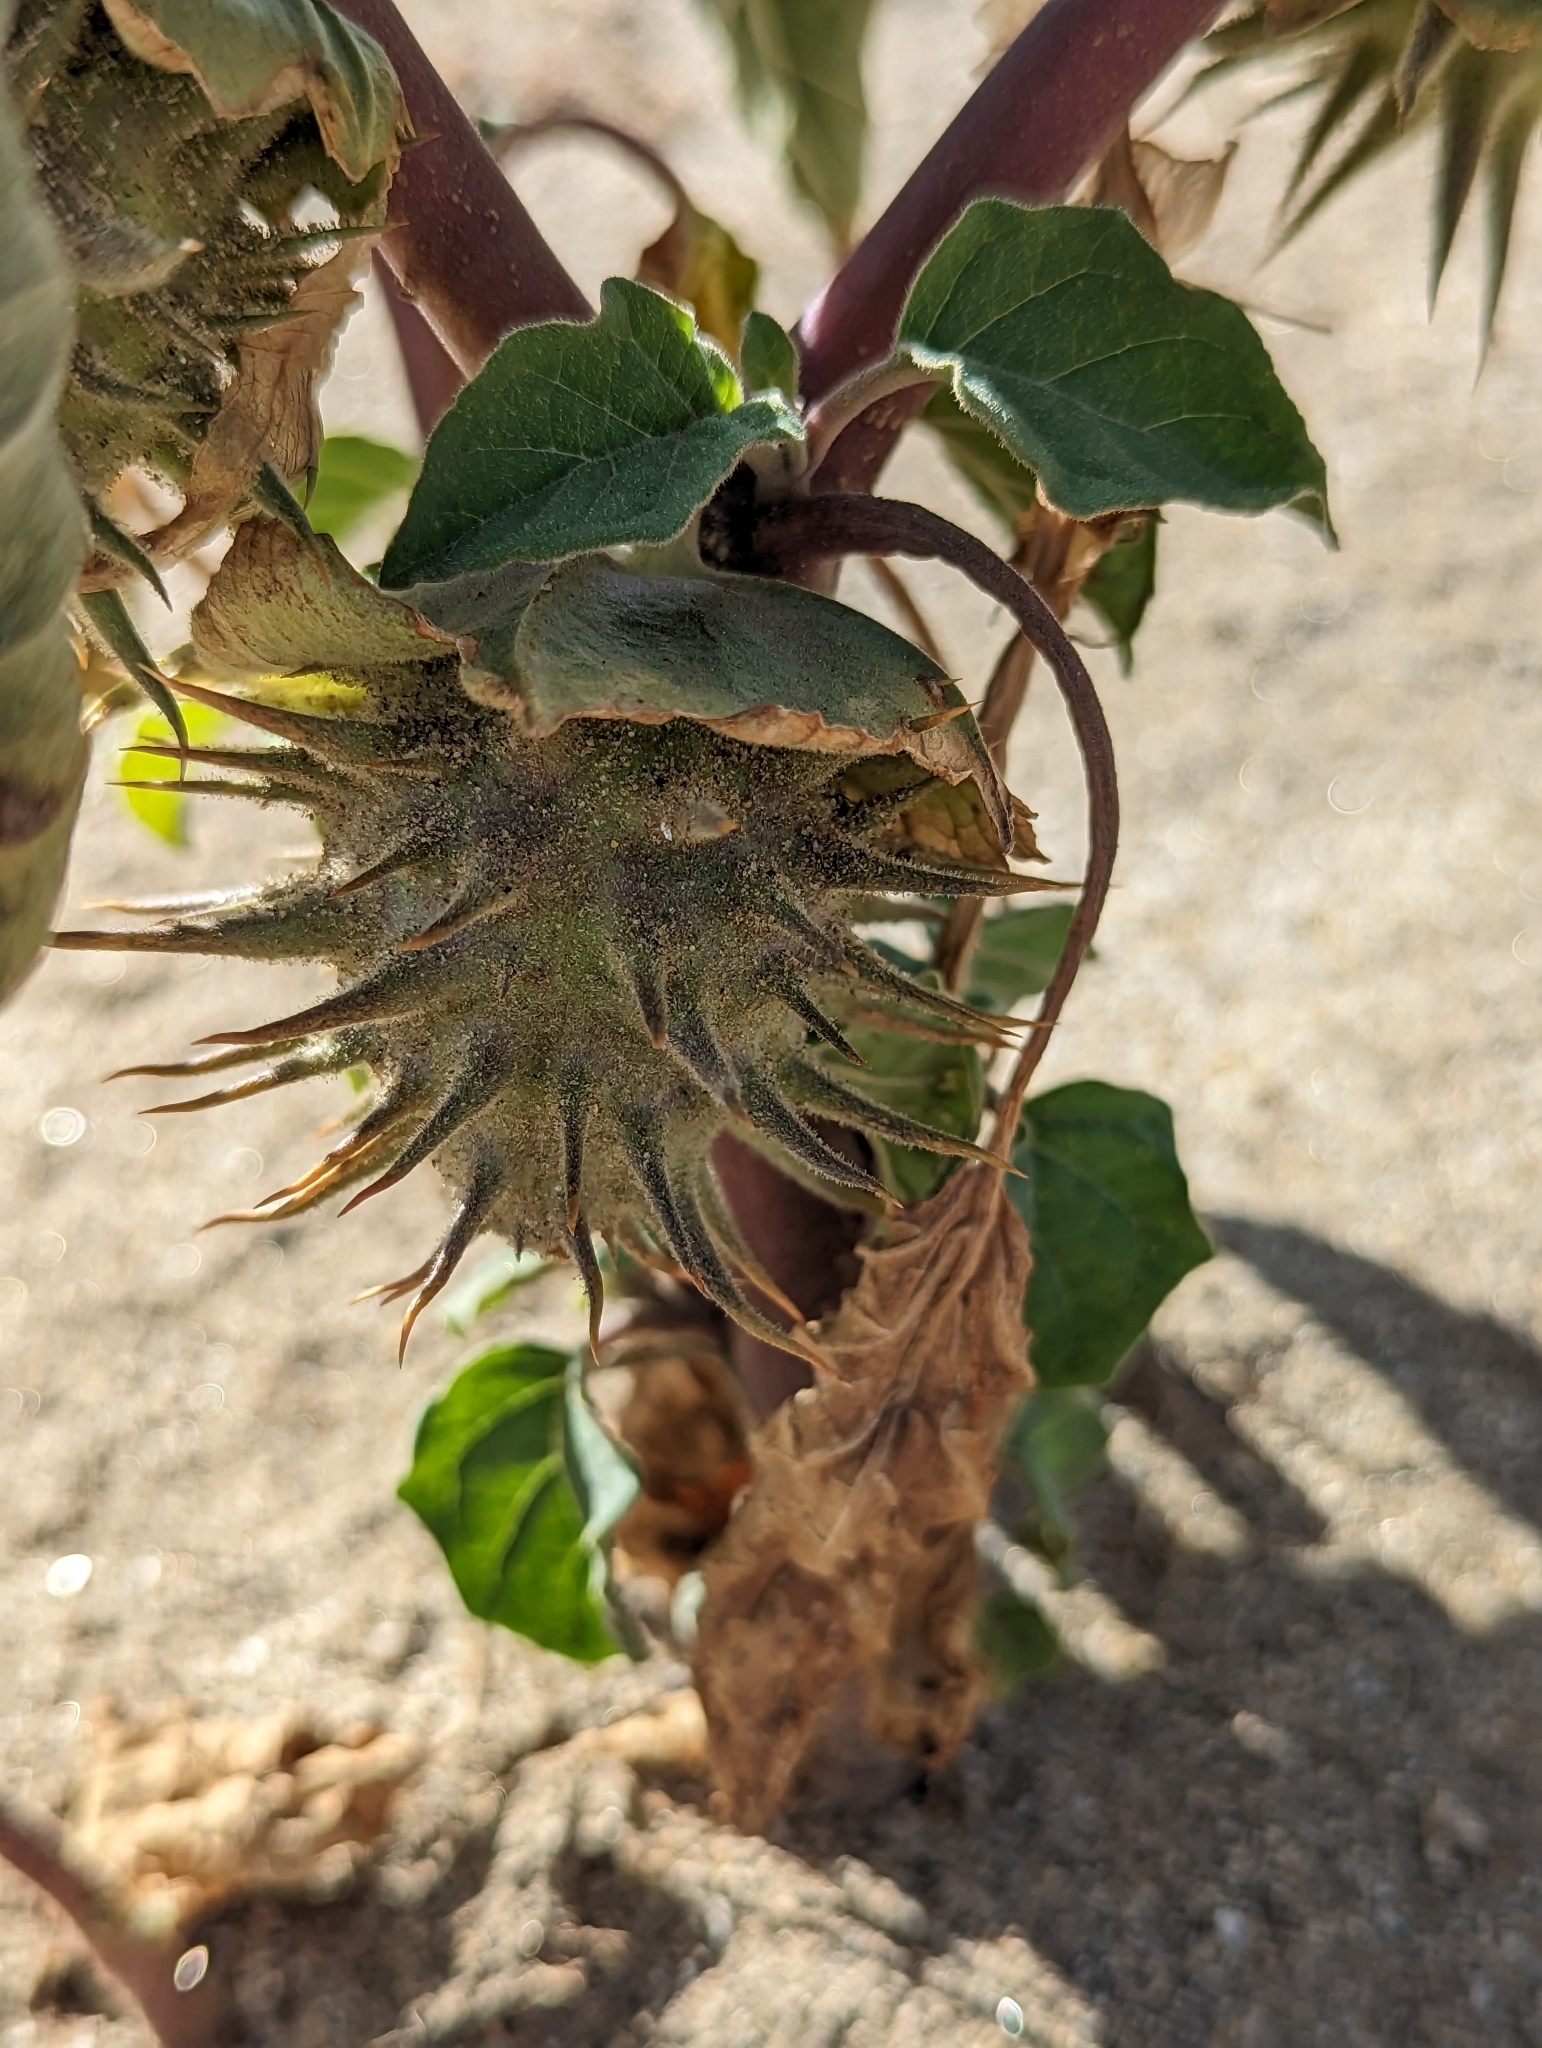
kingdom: Plantae
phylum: Tracheophyta
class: Magnoliopsida
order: Solanales
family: Solanaceae
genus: Datura
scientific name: Datura discolor
